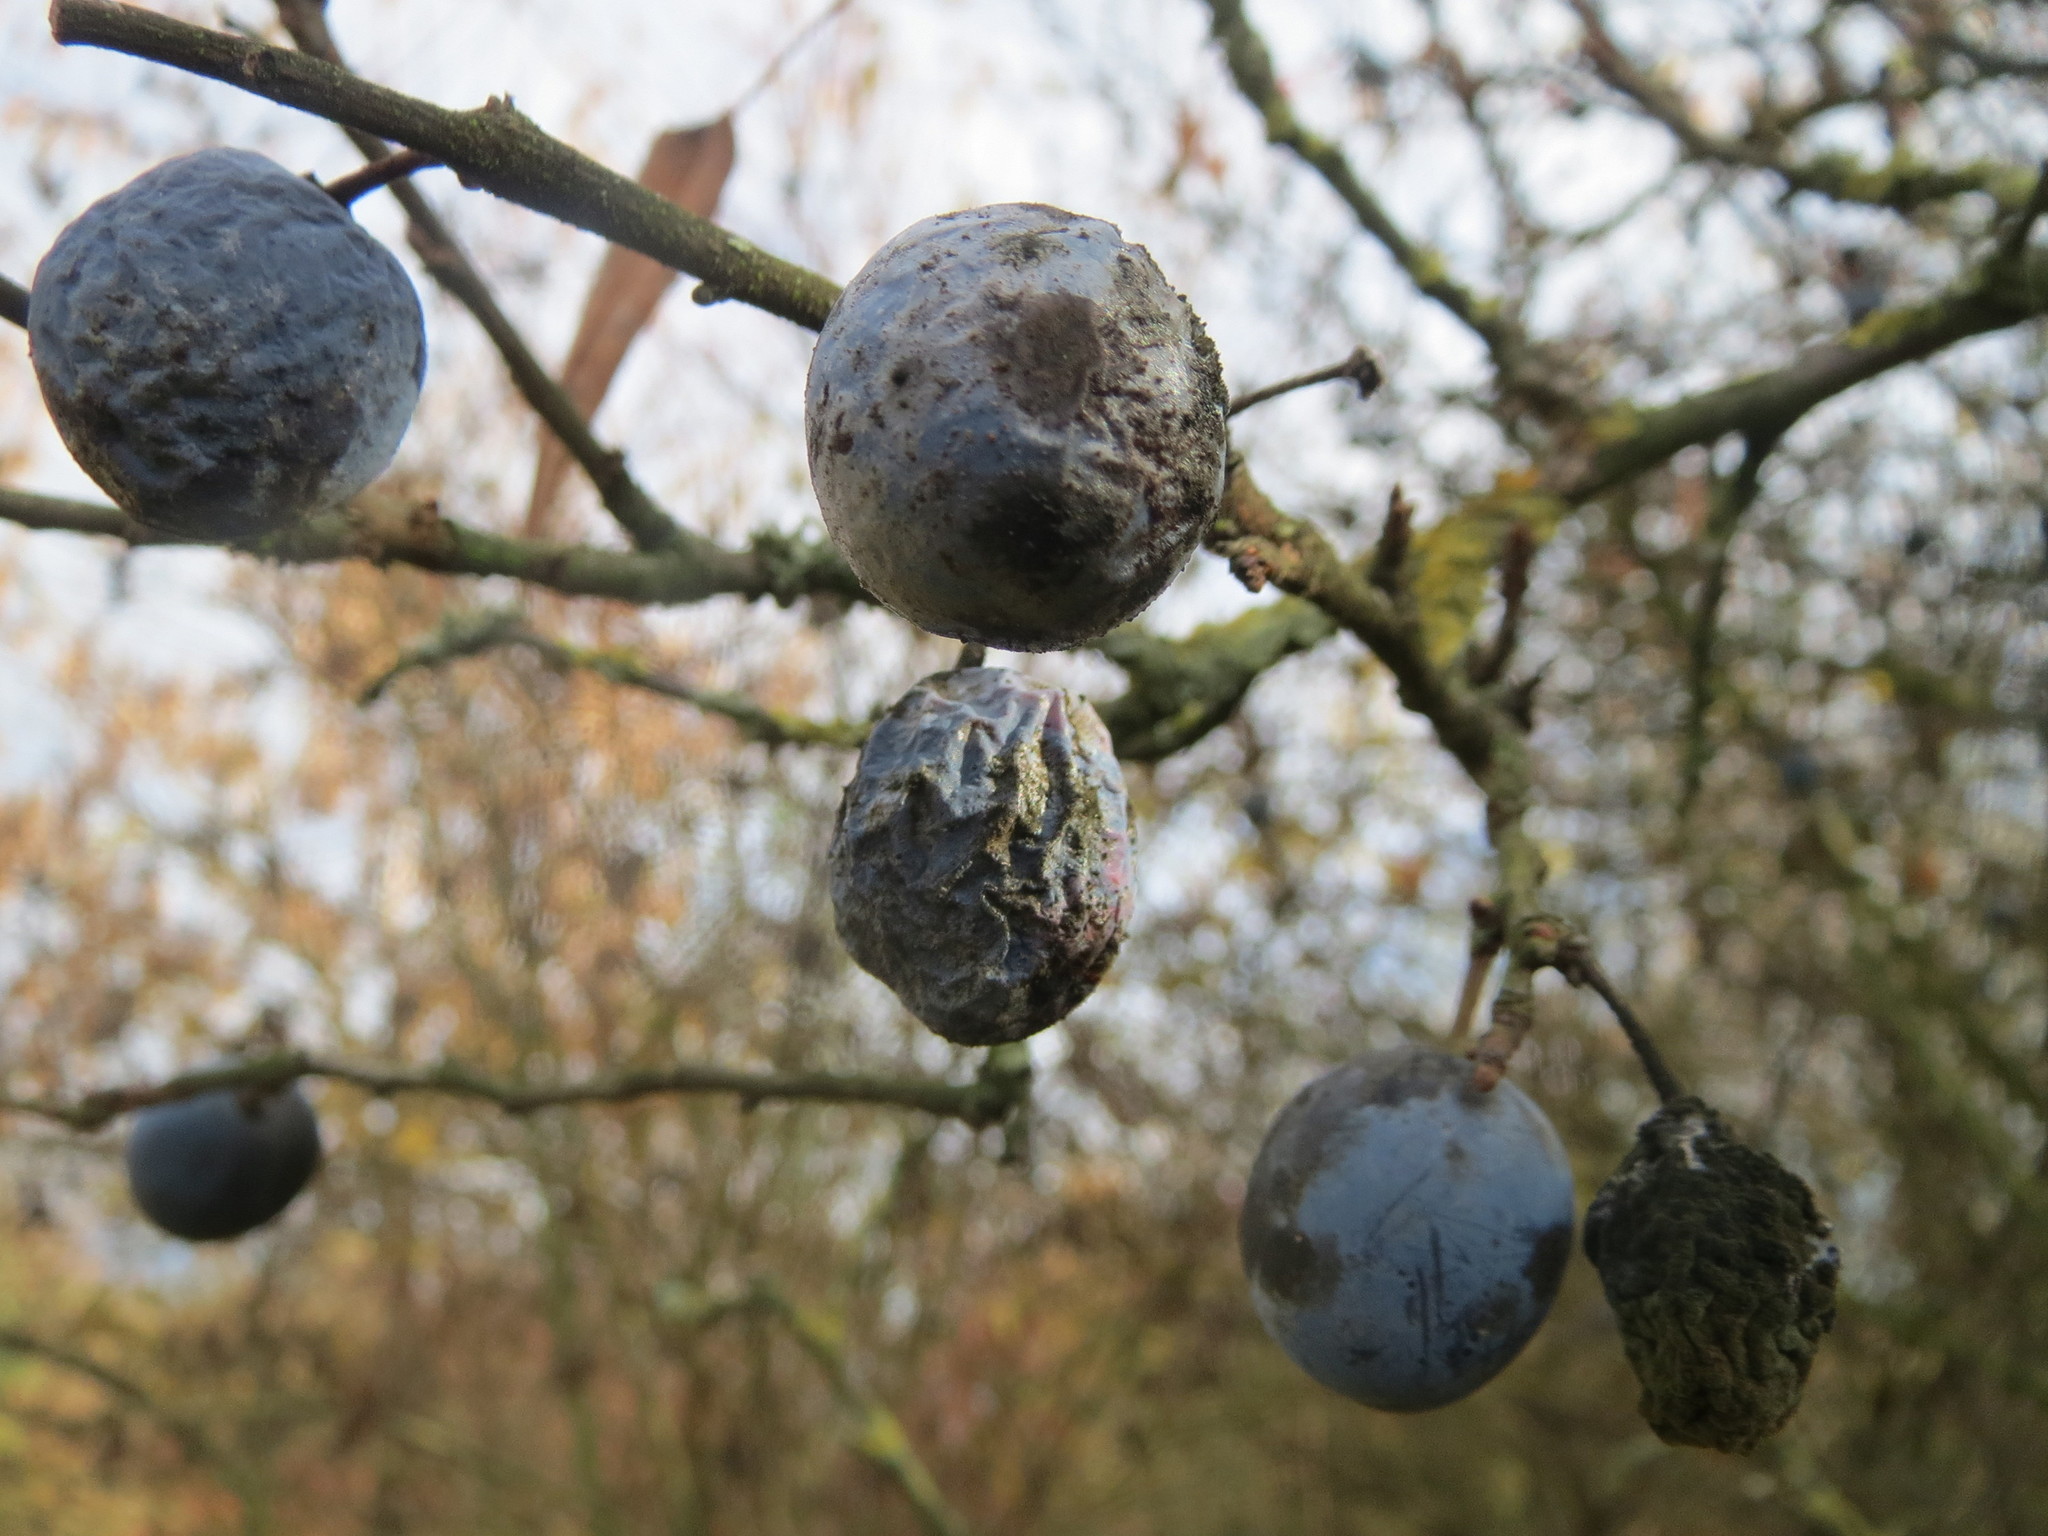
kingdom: Plantae
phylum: Tracheophyta
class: Magnoliopsida
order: Rosales
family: Rosaceae
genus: Prunus
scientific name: Prunus spinosa
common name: Blackthorn
